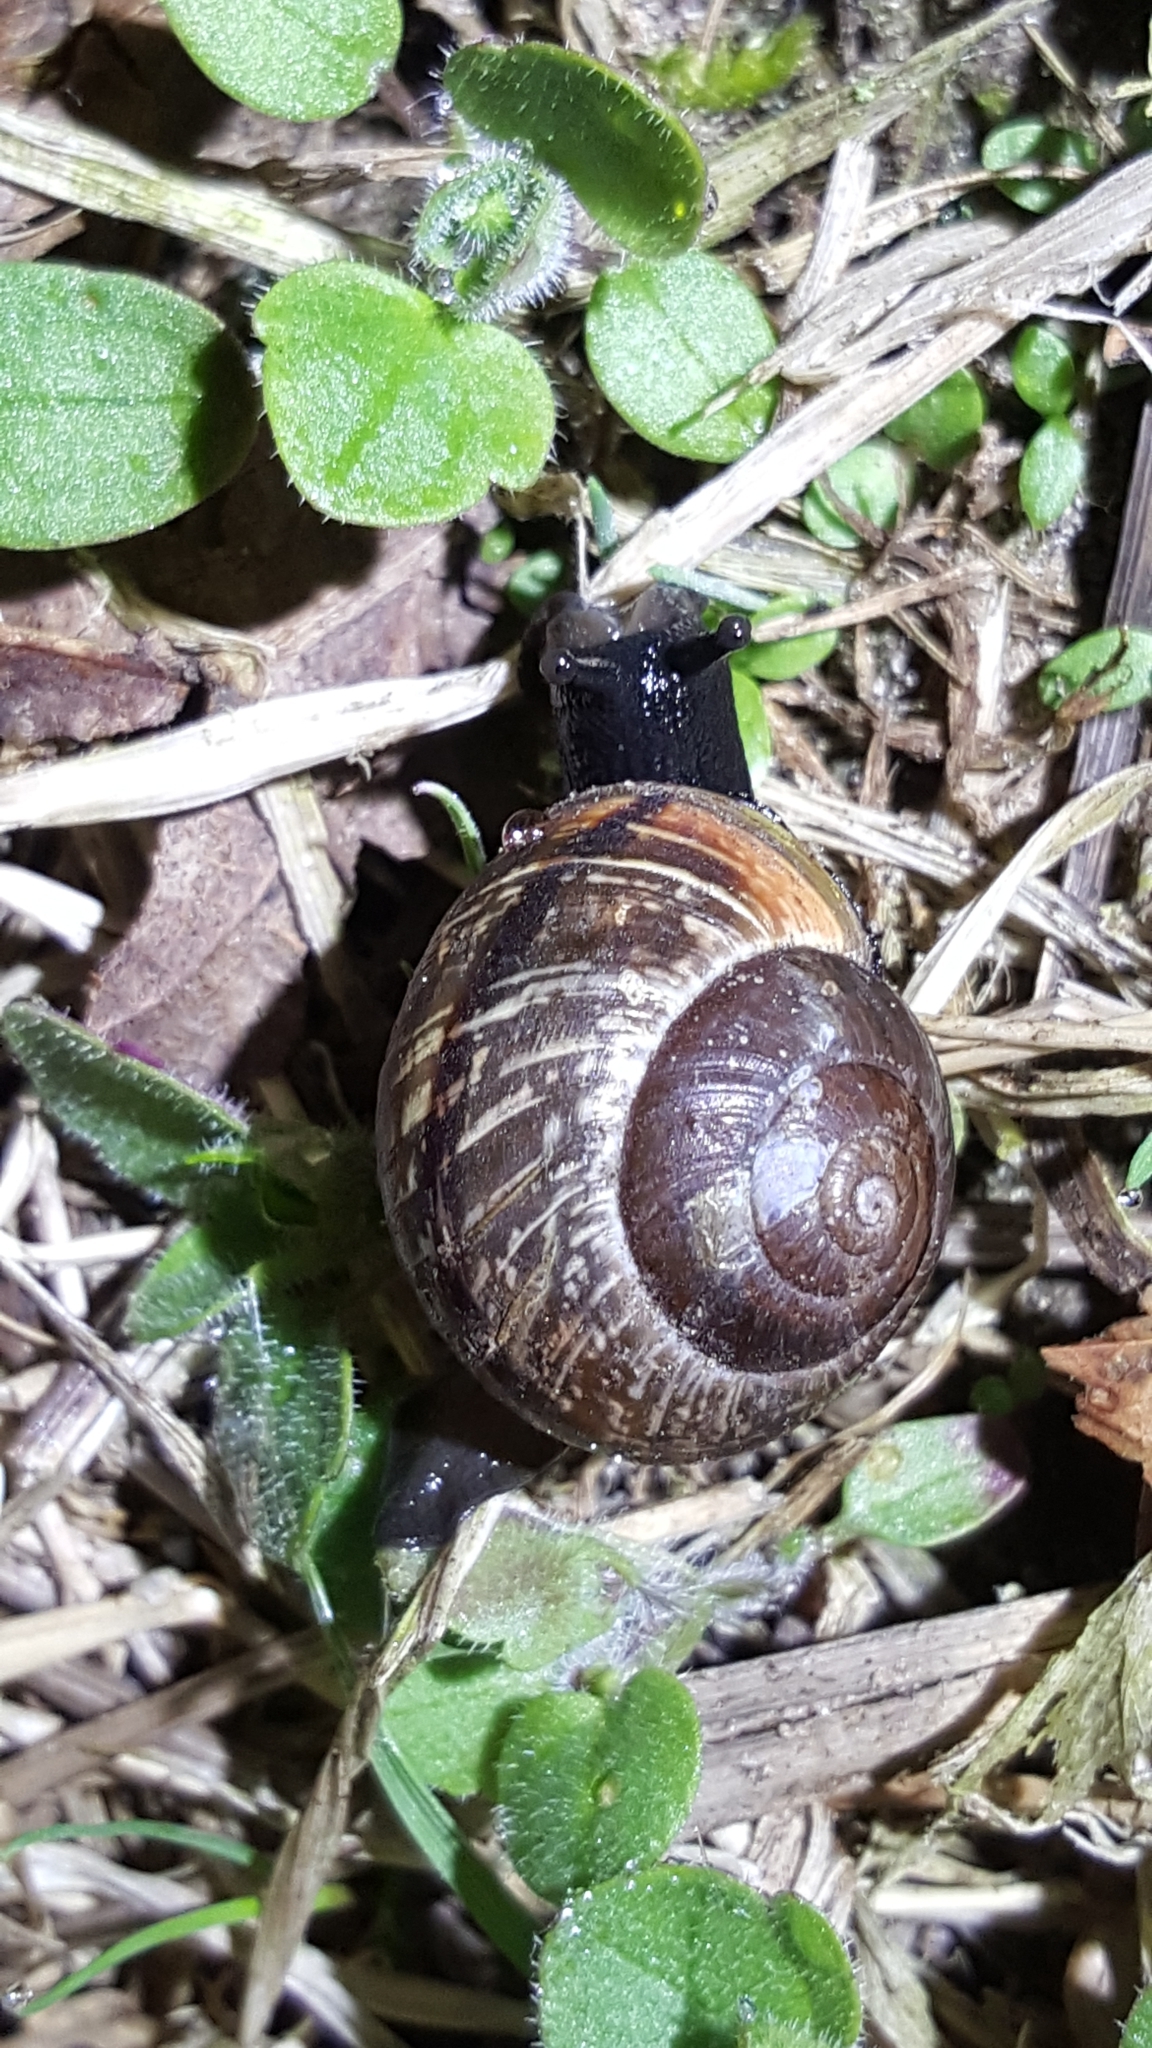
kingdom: Animalia
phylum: Mollusca
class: Gastropoda
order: Stylommatophora
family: Helicidae
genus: Arianta
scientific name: Arianta arbustorum
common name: Copse snail
